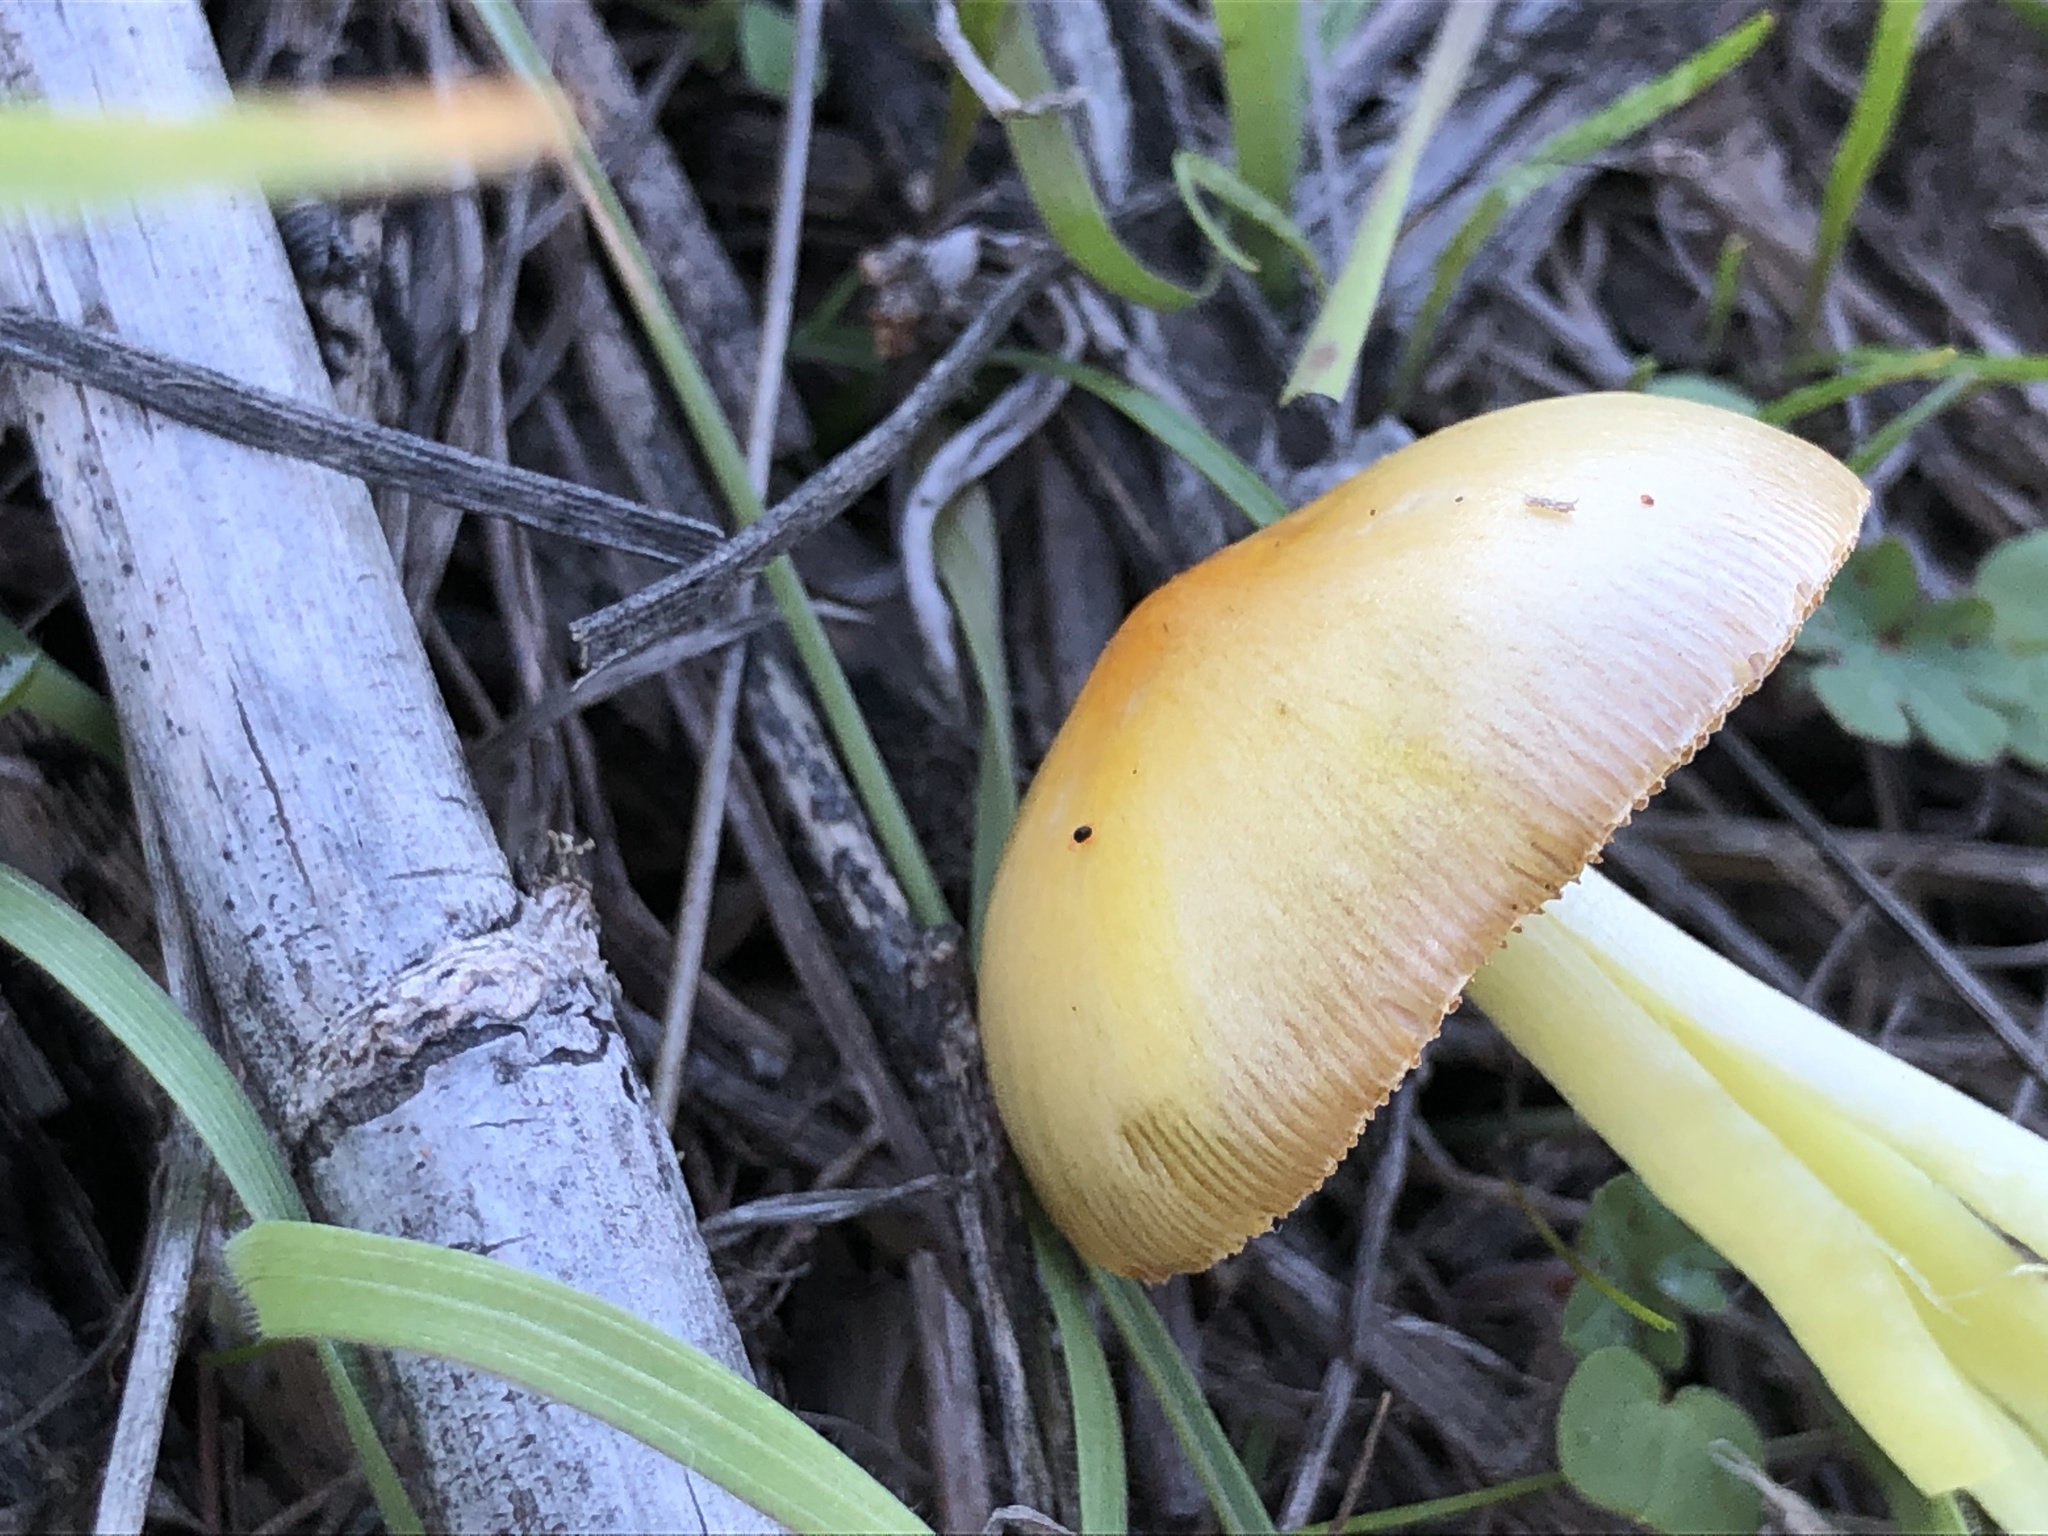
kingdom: Fungi
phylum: Basidiomycota
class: Agaricomycetes
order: Agaricales
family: Bolbitiaceae
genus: Bolbitius
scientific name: Bolbitius titubans
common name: Yellow fieldcap
